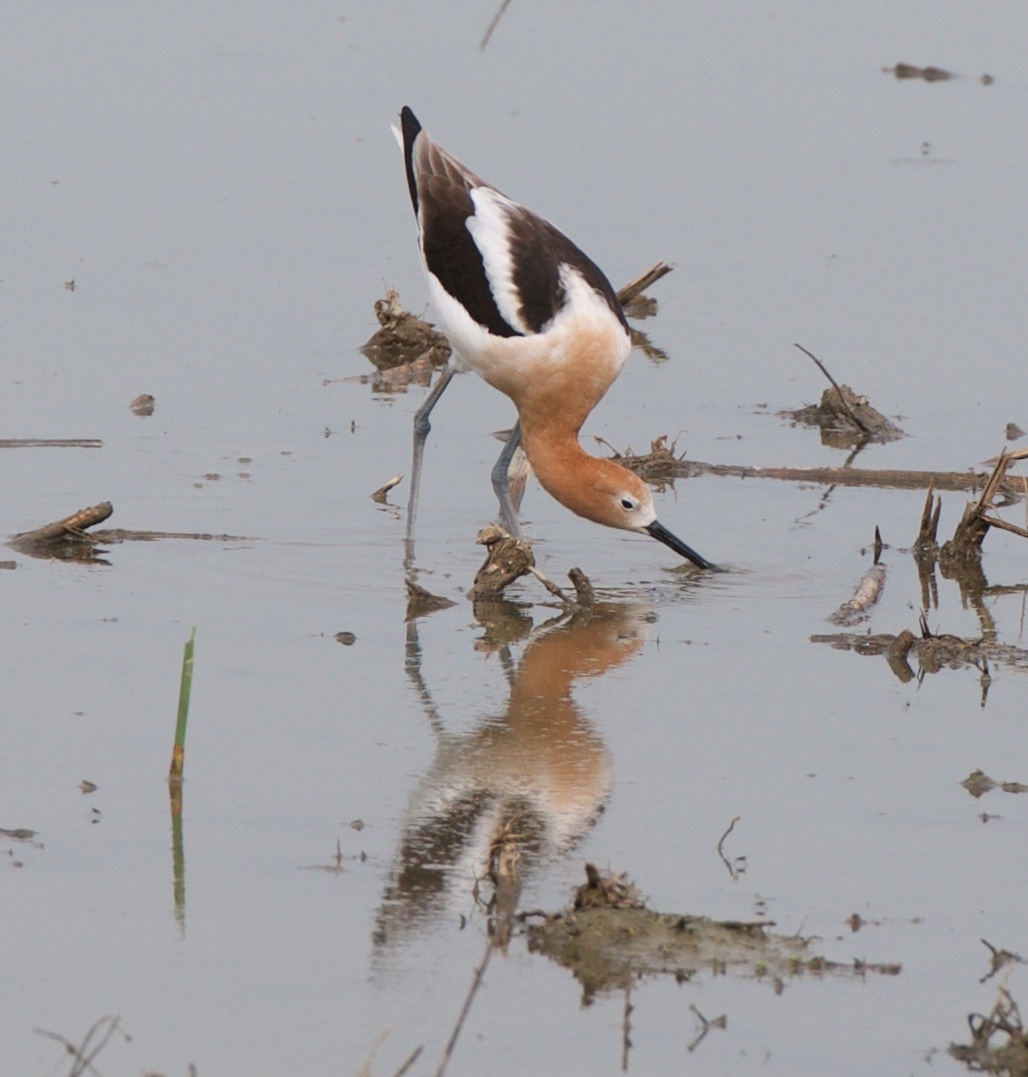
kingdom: Animalia
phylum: Chordata
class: Aves
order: Charadriiformes
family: Recurvirostridae
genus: Recurvirostra
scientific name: Recurvirostra americana
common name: American avocet
